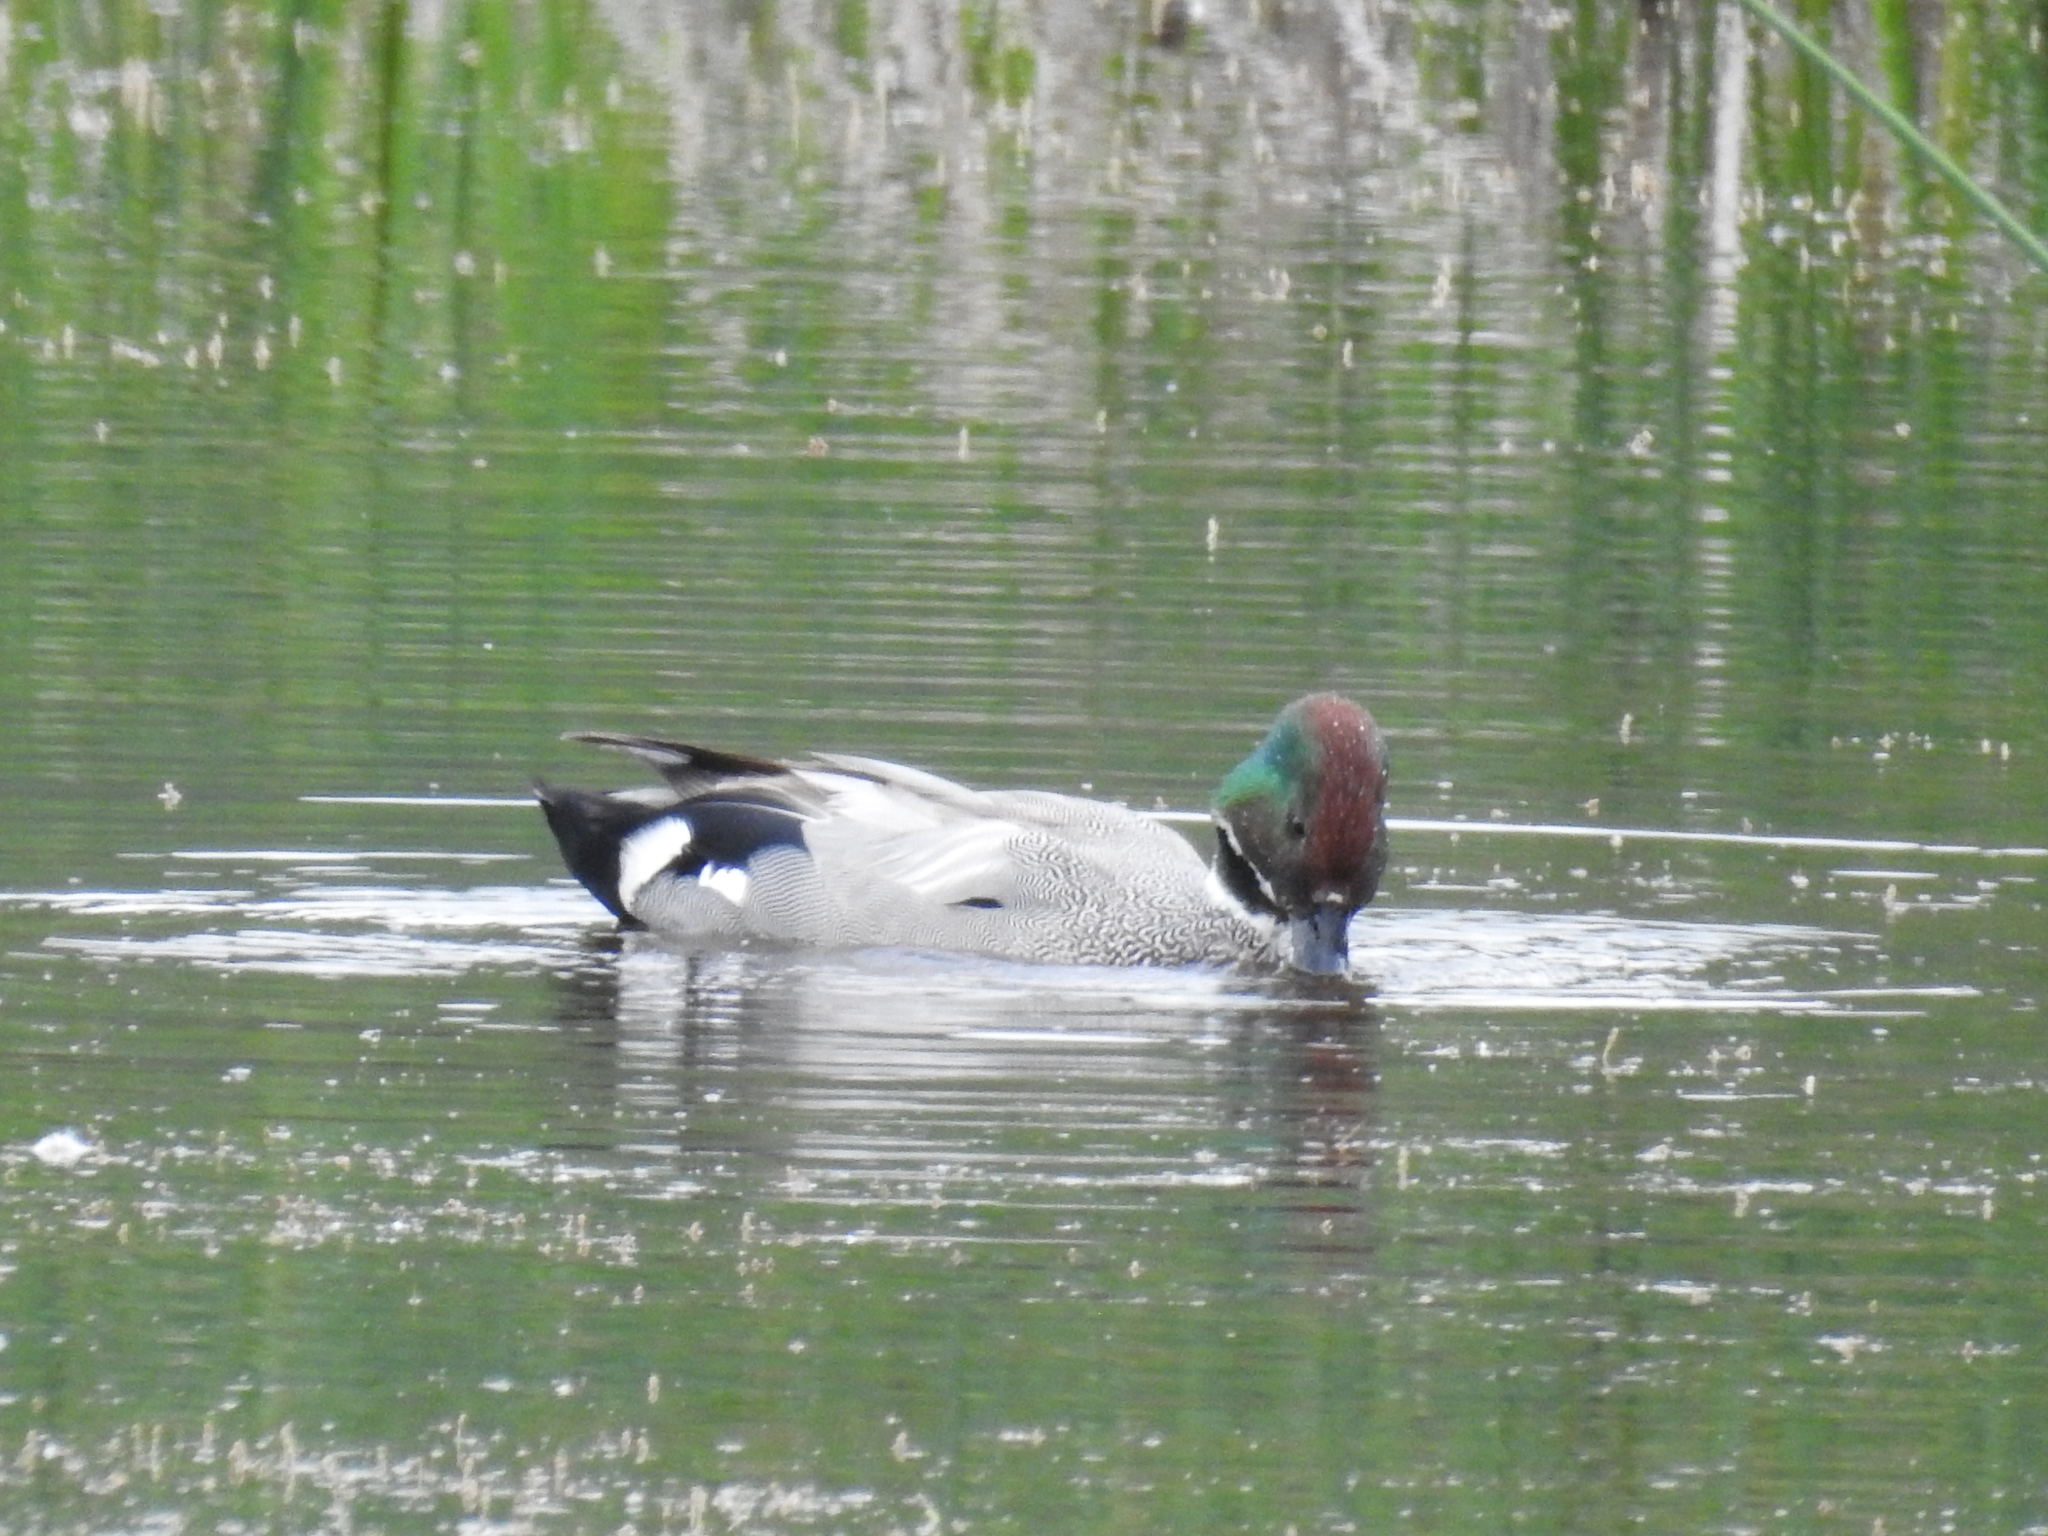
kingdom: Animalia
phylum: Chordata
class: Aves
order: Anseriformes
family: Anatidae
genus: Mareca
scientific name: Mareca falcata
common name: Falcated duck
